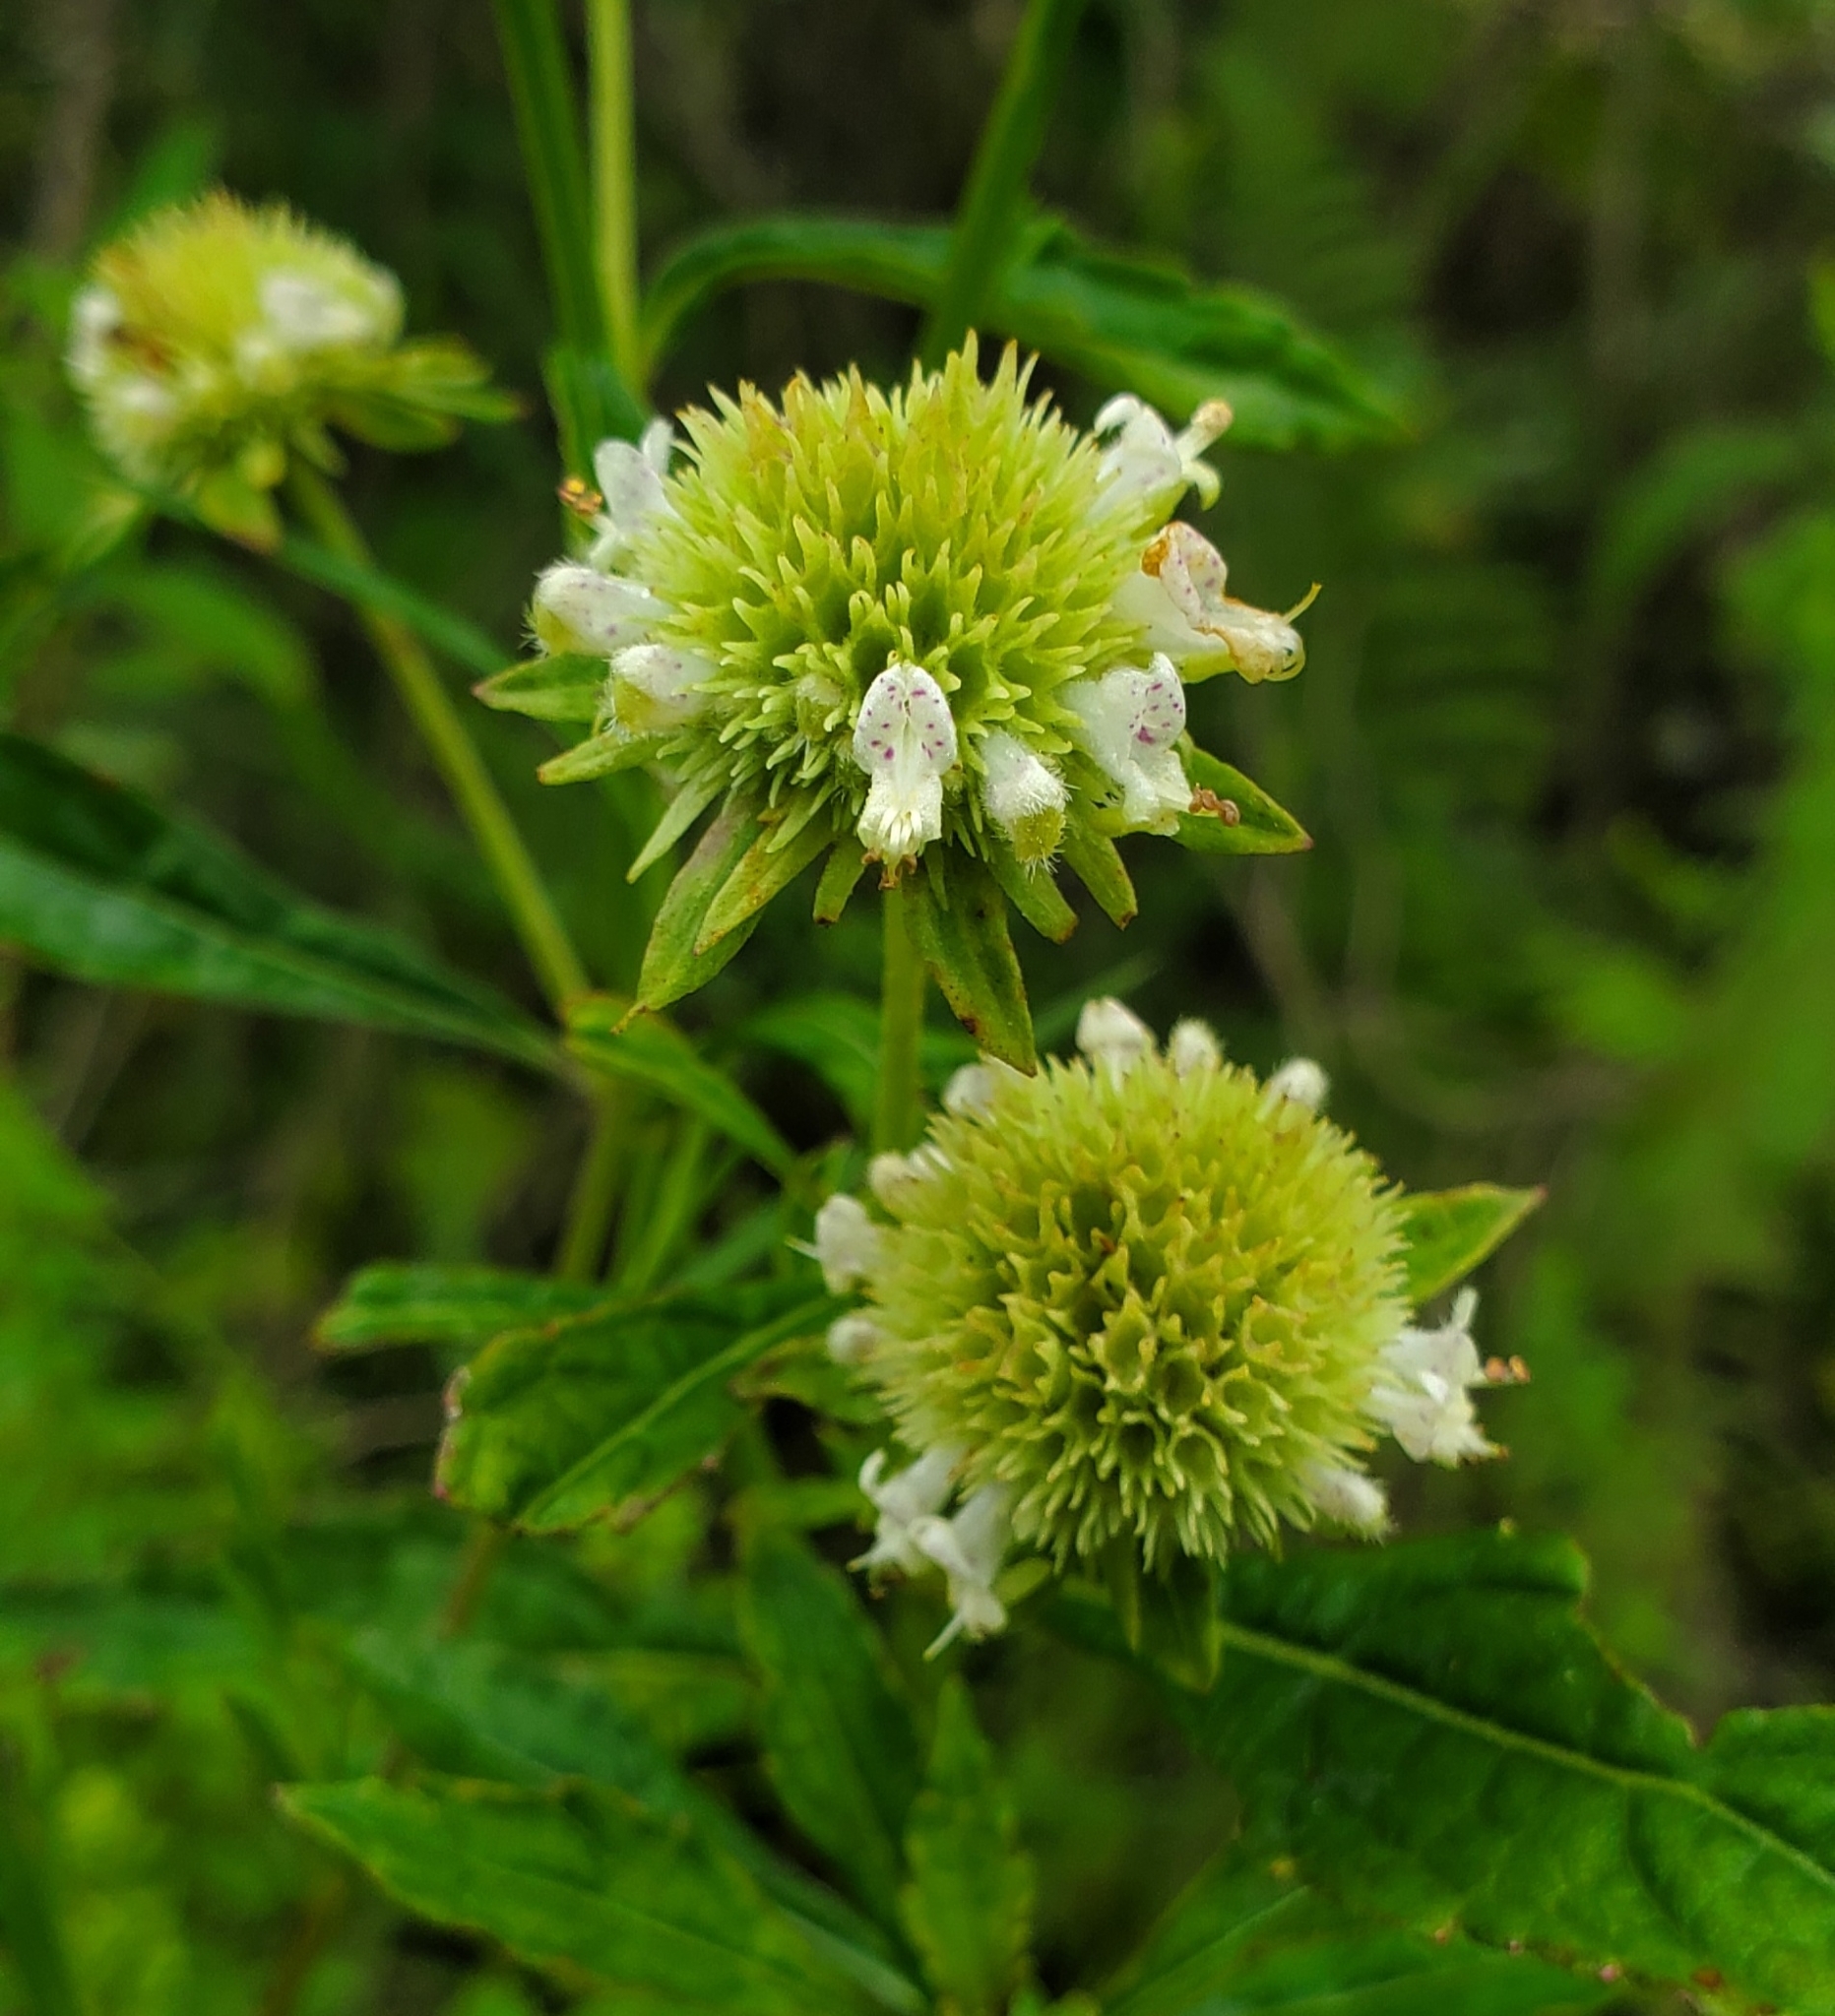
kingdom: Plantae
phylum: Tracheophyta
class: Magnoliopsida
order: Lamiales
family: Lamiaceae
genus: Hyptis
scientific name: Hyptis alata
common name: Cluster bush-mint
